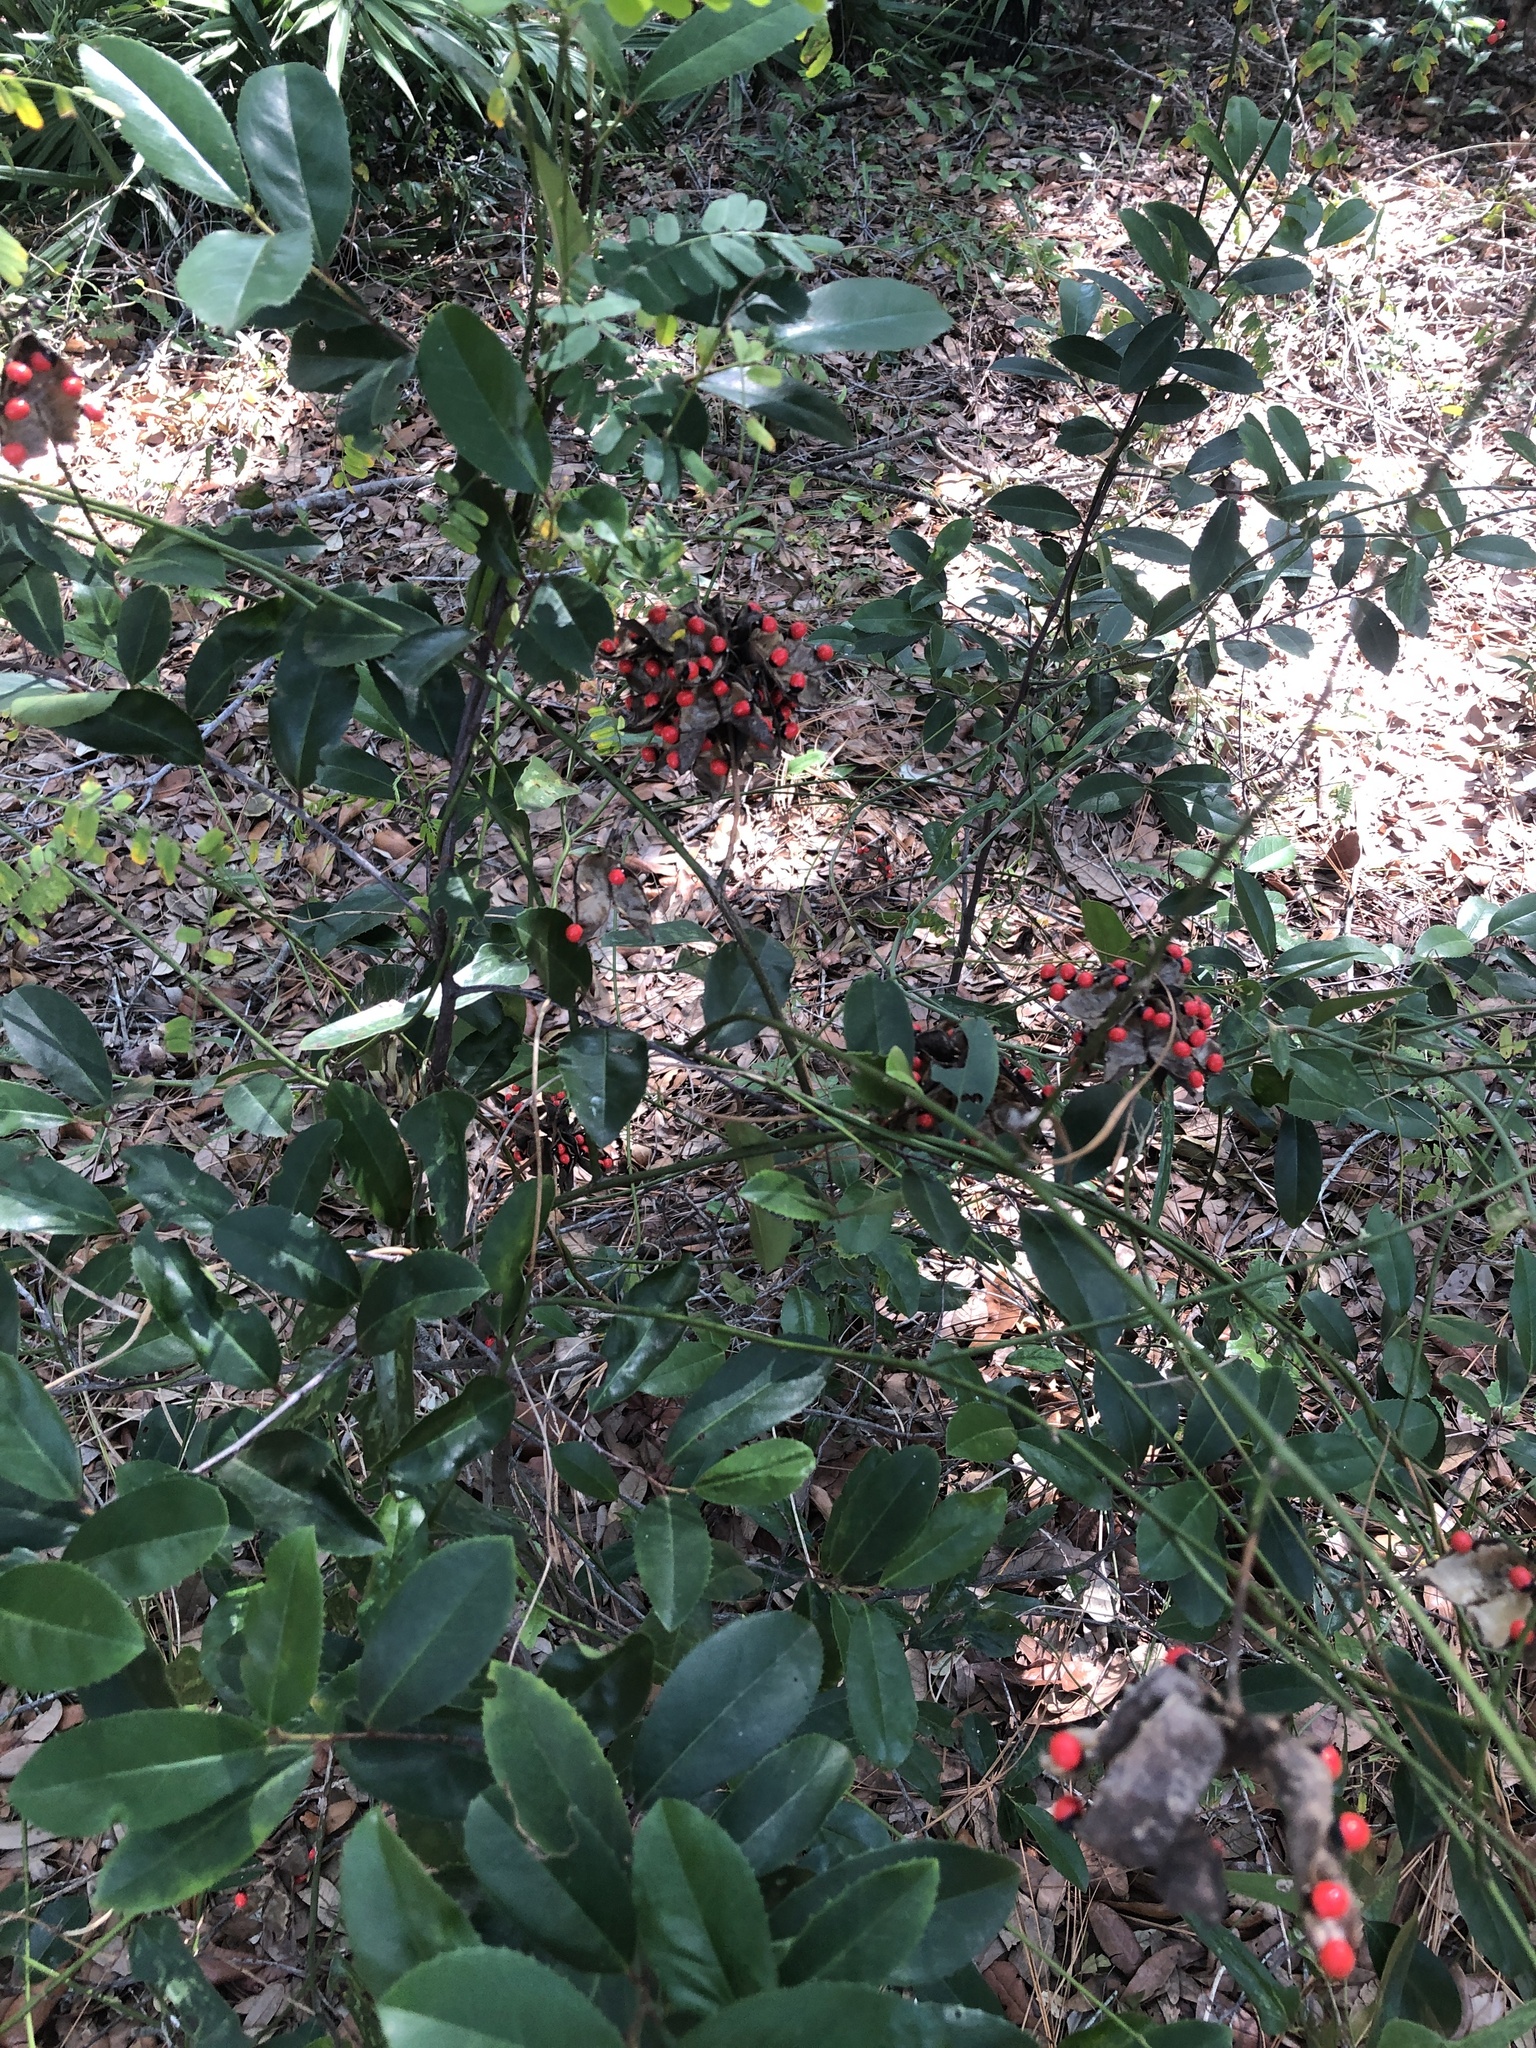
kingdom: Plantae
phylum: Tracheophyta
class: Magnoliopsida
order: Fabales
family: Fabaceae
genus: Abrus
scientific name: Abrus precatorius
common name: Rosarypea
